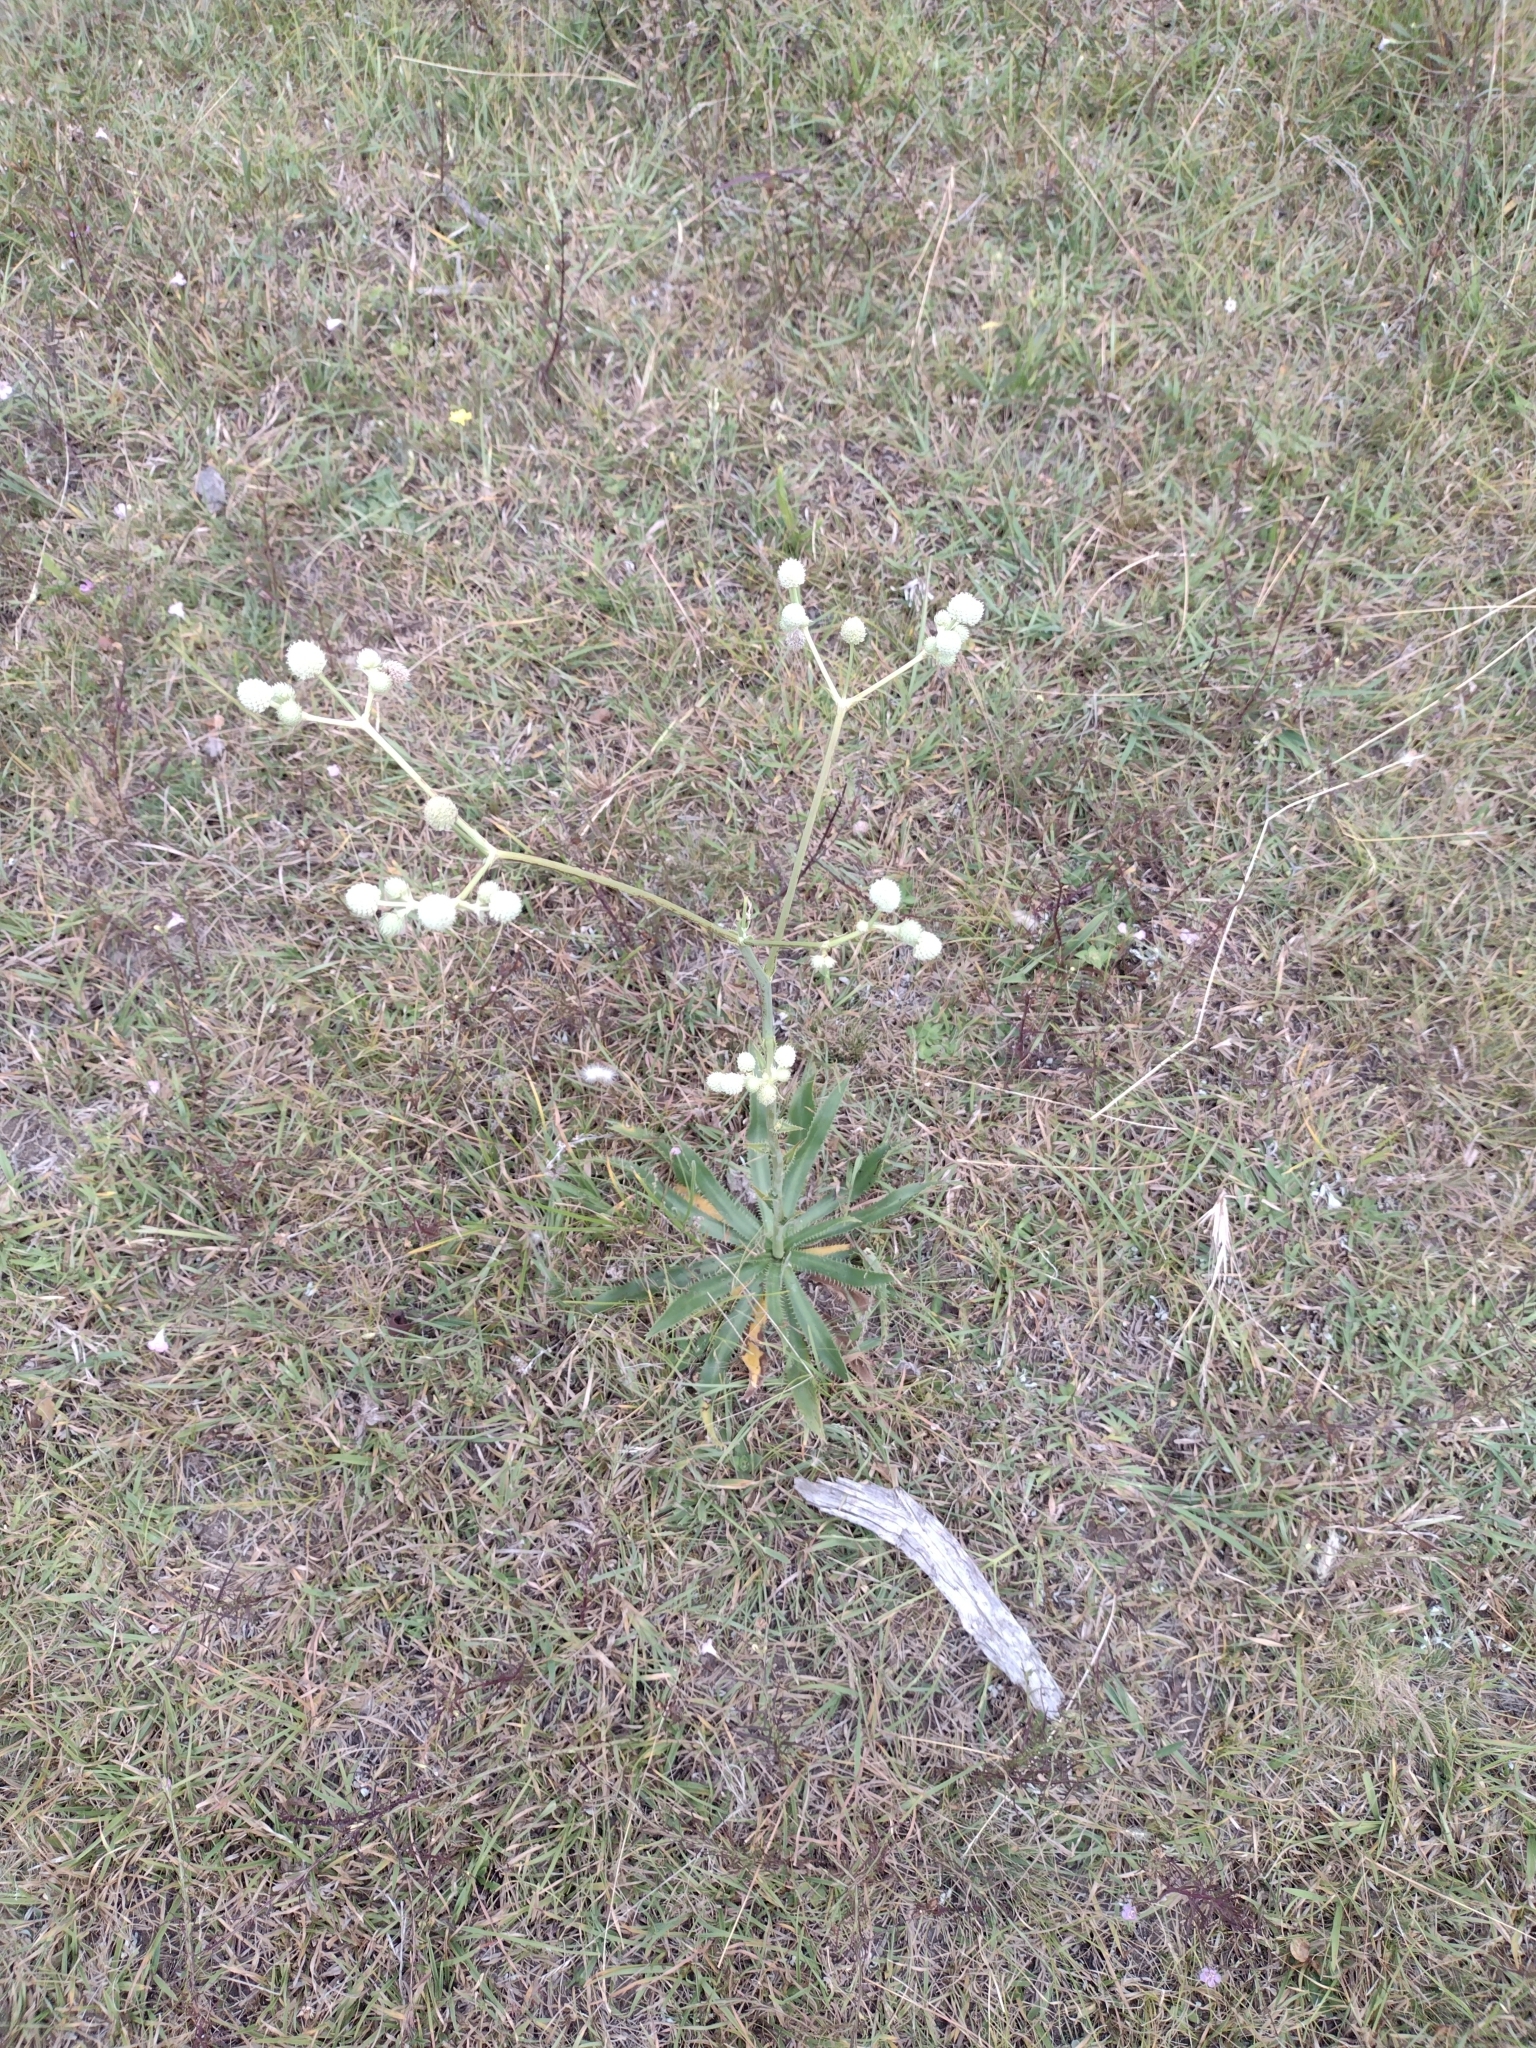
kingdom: Plantae
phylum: Tracheophyta
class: Magnoliopsida
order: Apiales
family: Apiaceae
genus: Eryngium
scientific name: Eryngium elegans
